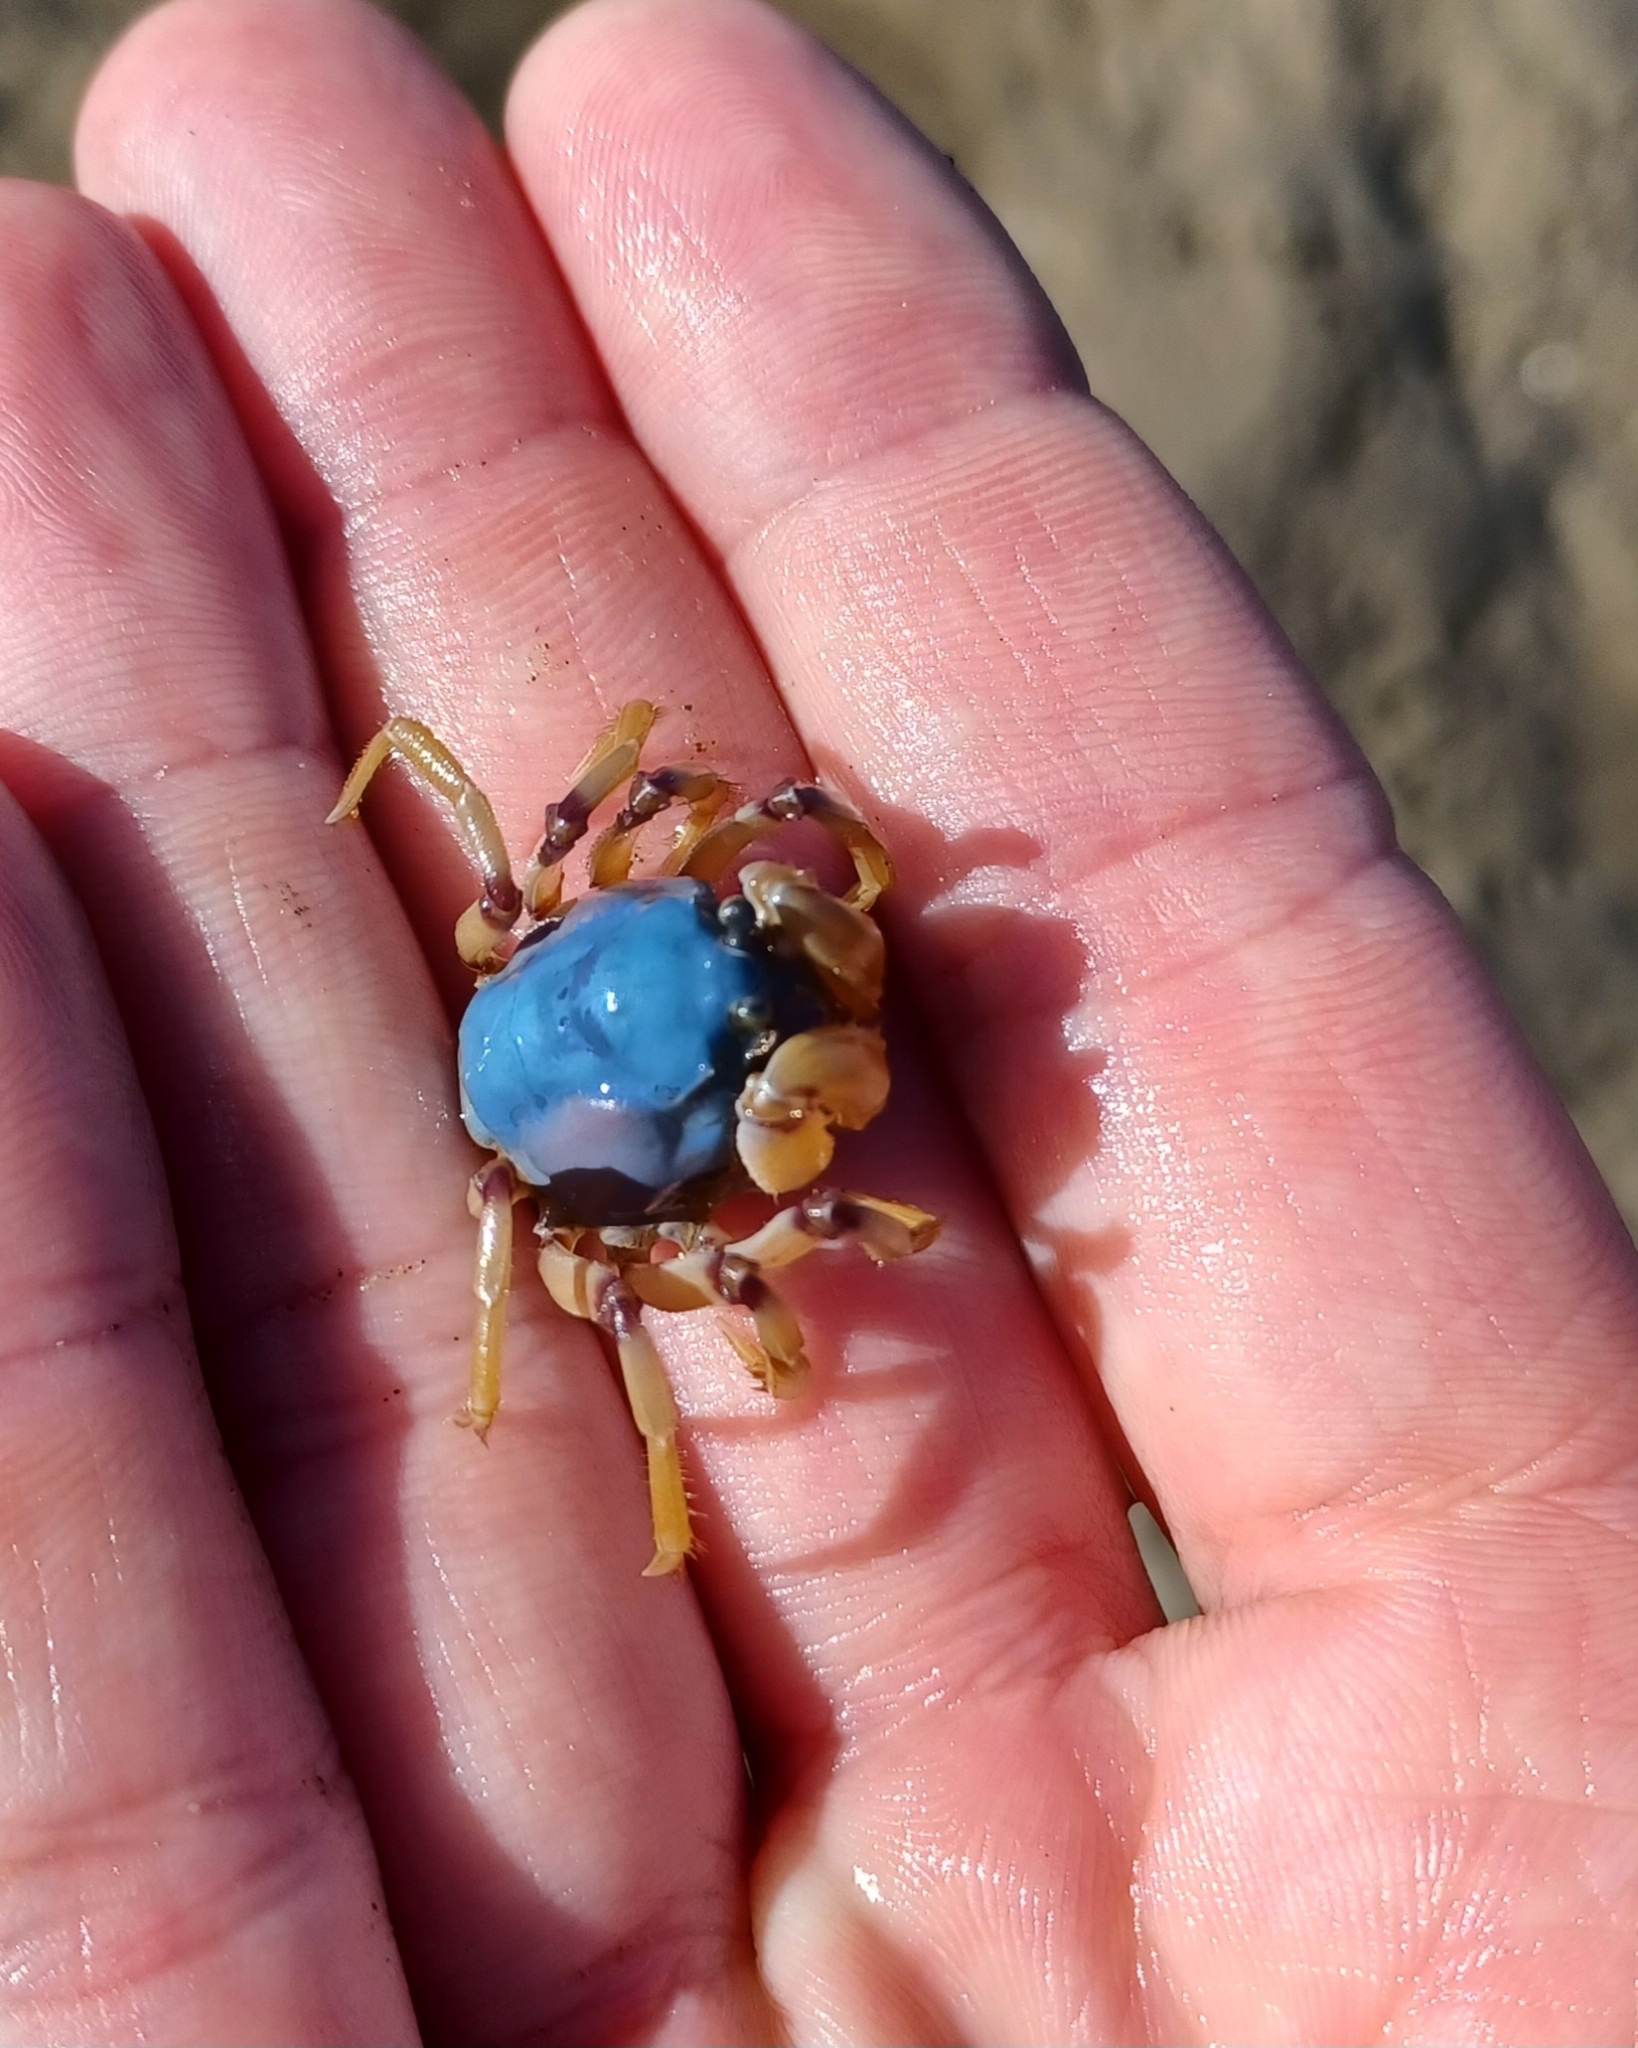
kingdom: Animalia
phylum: Arthropoda
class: Malacostraca
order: Decapoda
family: Mictyridae
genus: Mictyris
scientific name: Mictyris longicarpus
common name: Light-blue soldier crab
